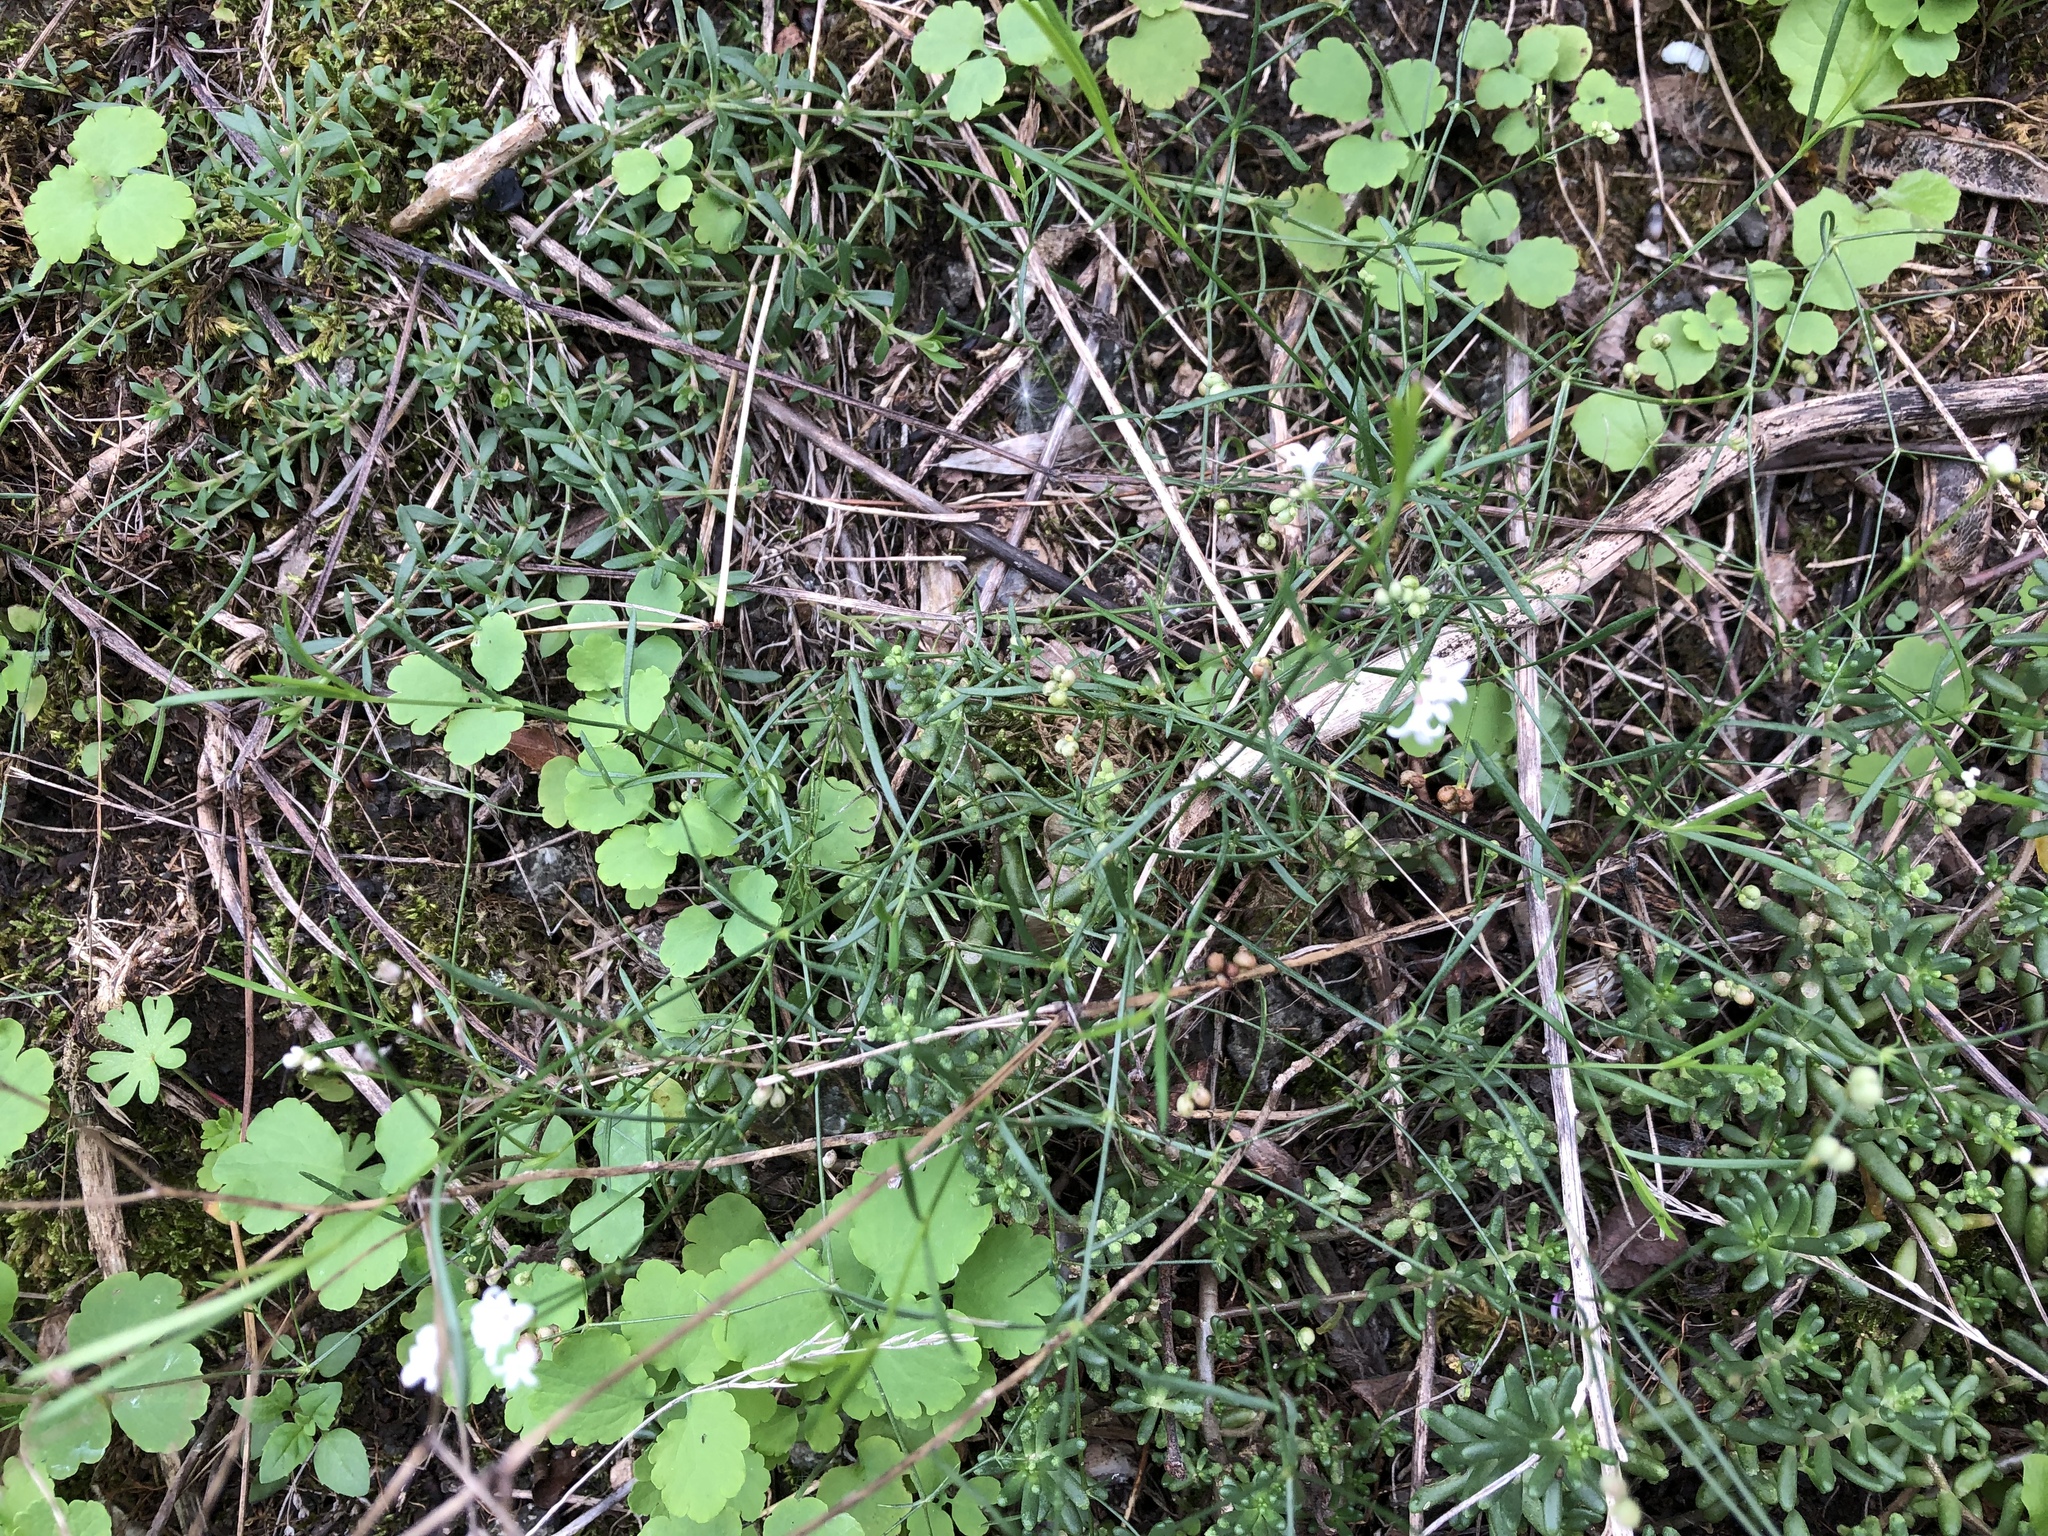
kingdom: Plantae
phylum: Tracheophyta
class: Magnoliopsida
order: Gentianales
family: Rubiaceae
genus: Cynanchica
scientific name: Cynanchica pyrenaica
